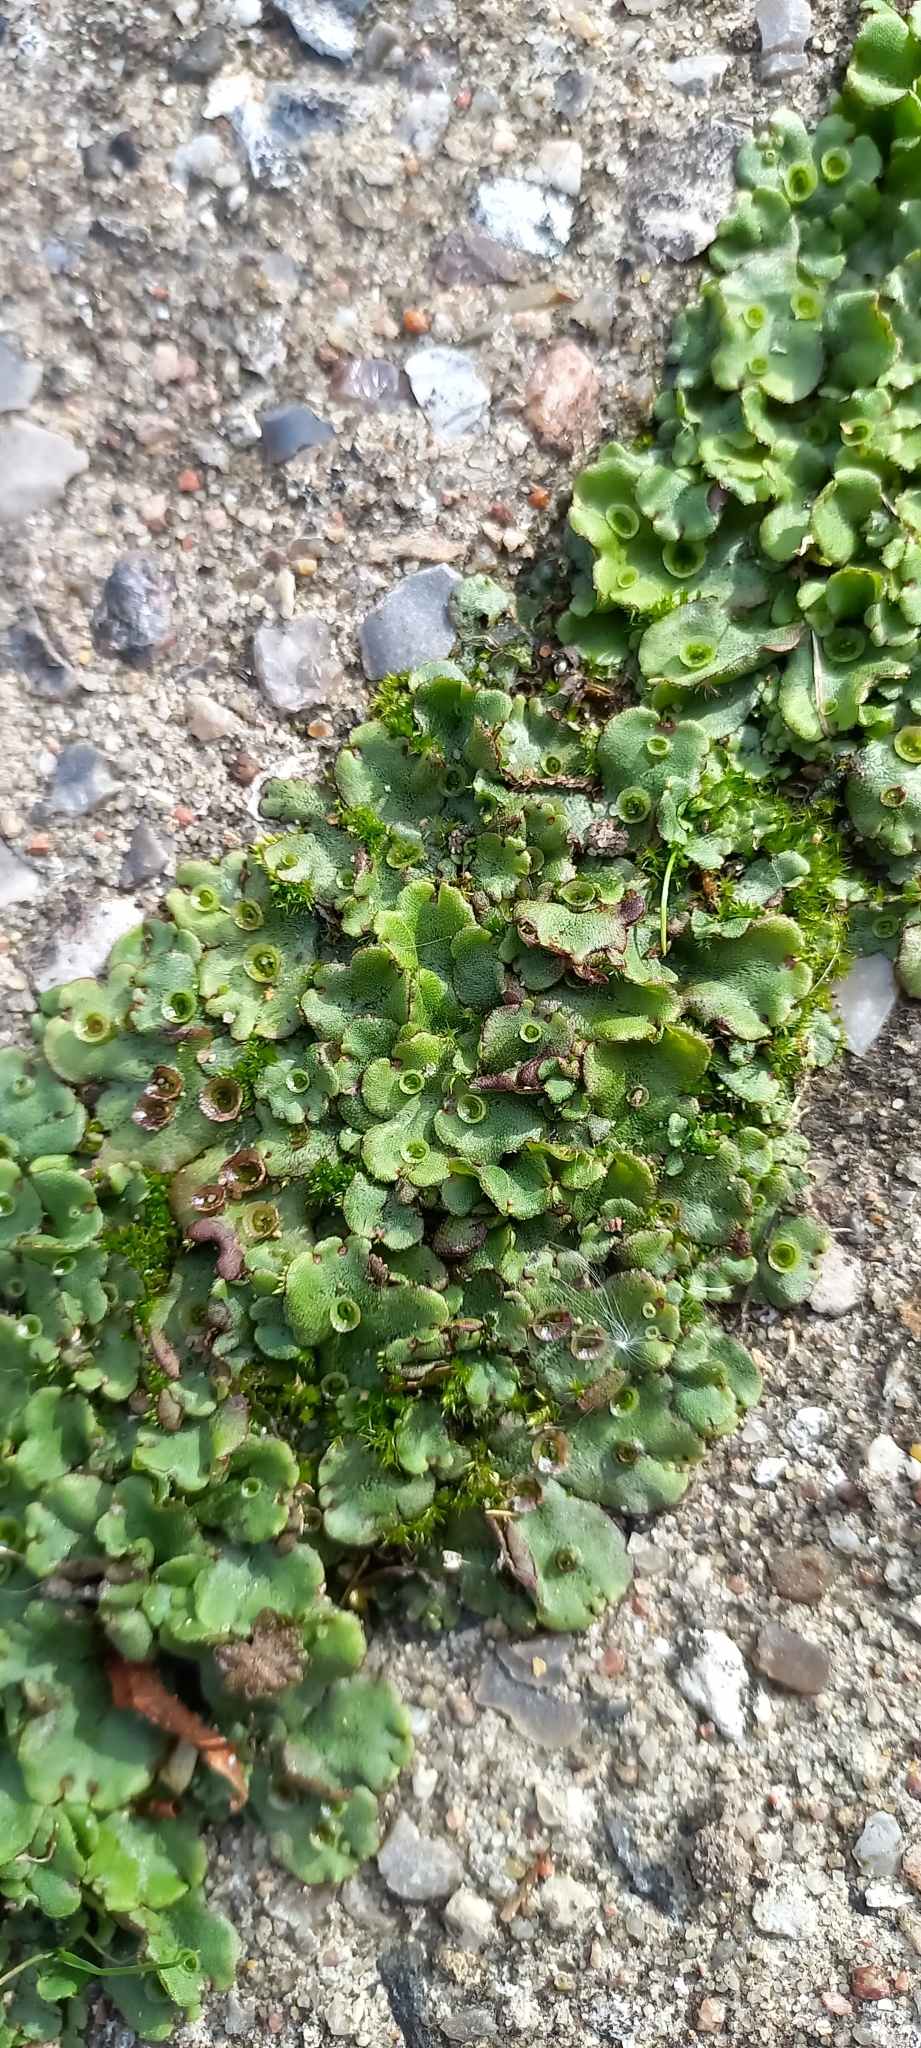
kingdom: Plantae
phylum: Marchantiophyta
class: Marchantiopsida
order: Marchantiales
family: Marchantiaceae
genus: Marchantia
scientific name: Marchantia polymorpha
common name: Common liverwort
